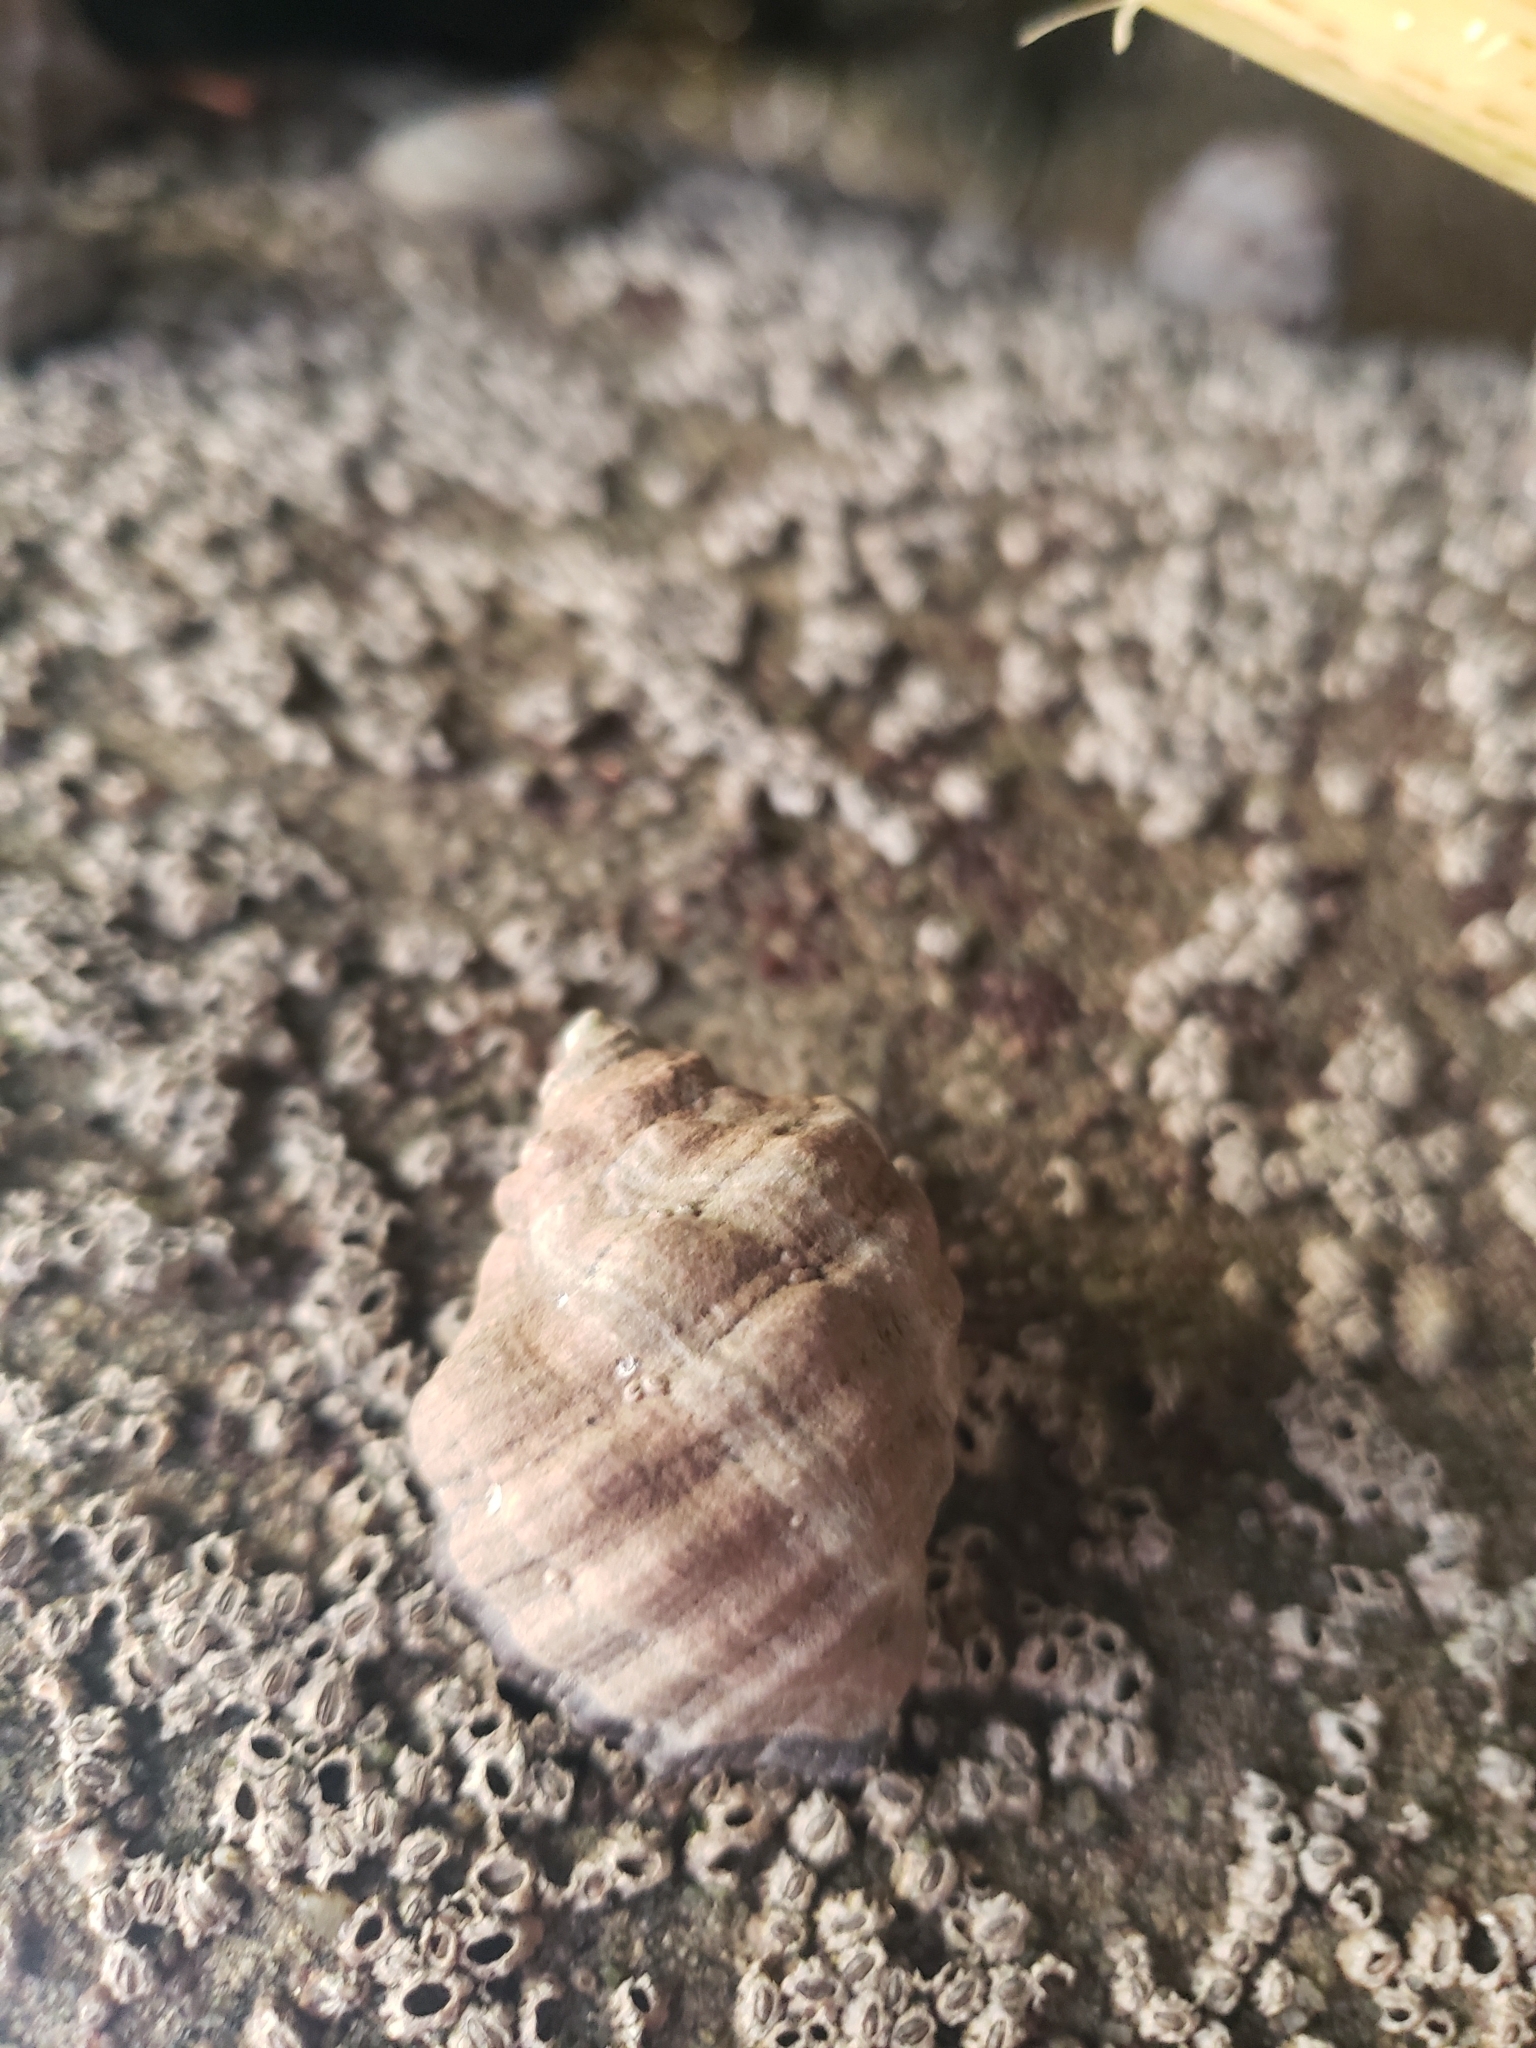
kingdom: Animalia
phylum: Mollusca
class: Gastropoda
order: Neogastropoda
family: Muricidae
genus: Mexacanthina
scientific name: Mexacanthina lugubris
